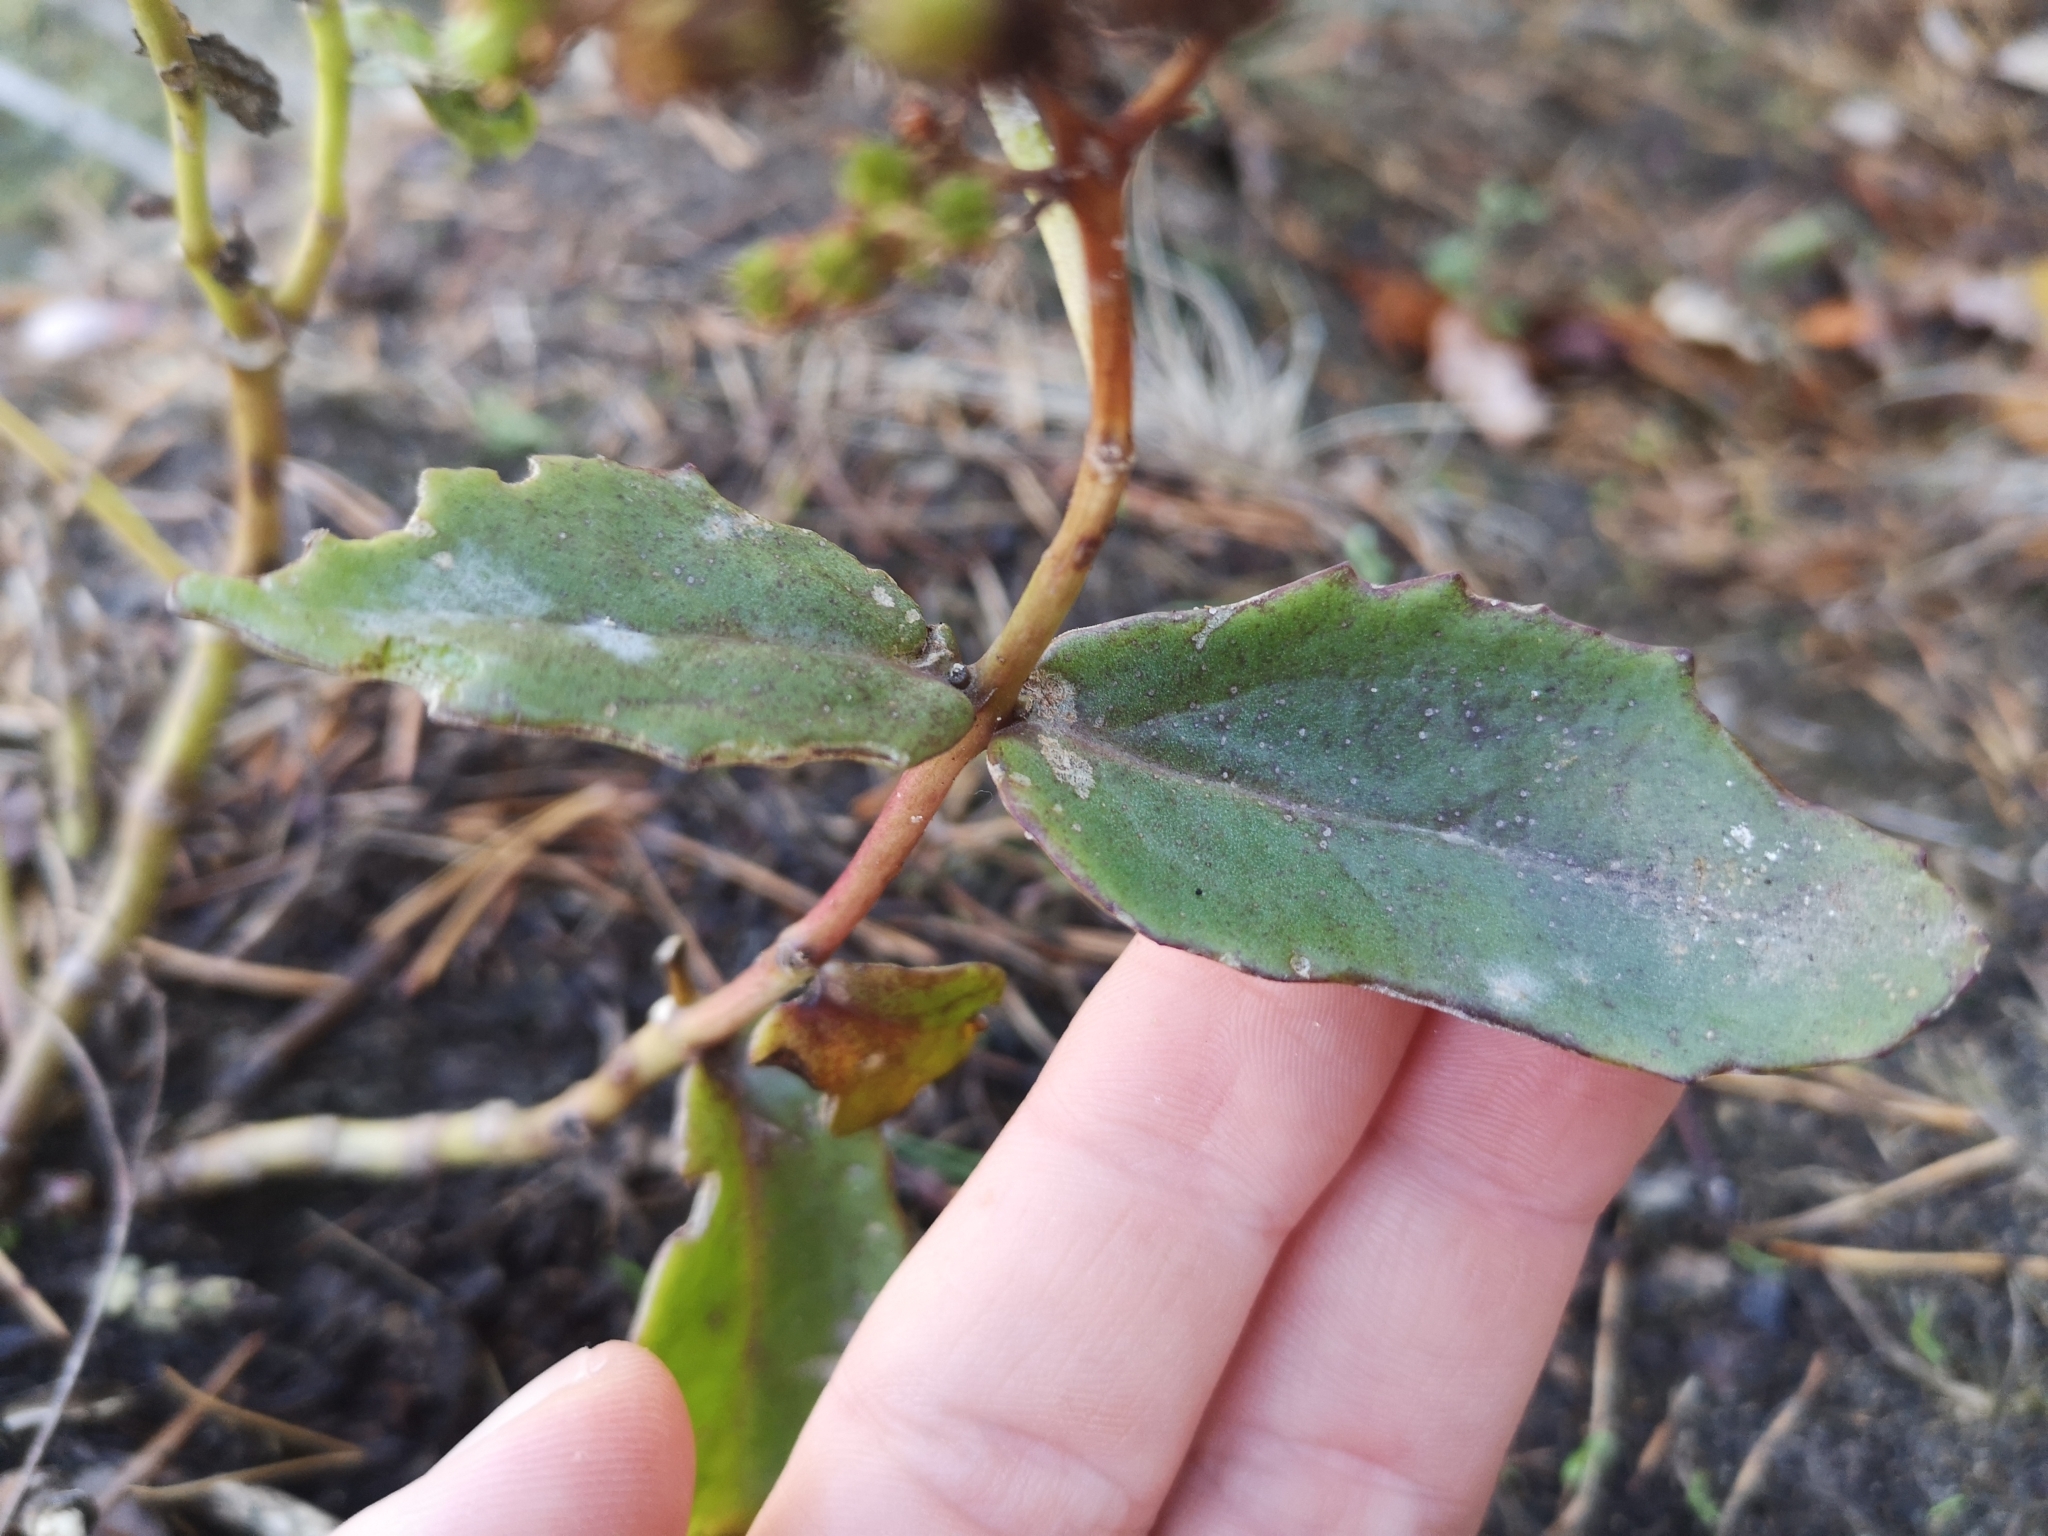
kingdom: Plantae
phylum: Tracheophyta
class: Magnoliopsida
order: Saxifragales
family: Crassulaceae
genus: Hylotelephium
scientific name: Hylotelephium maximum
